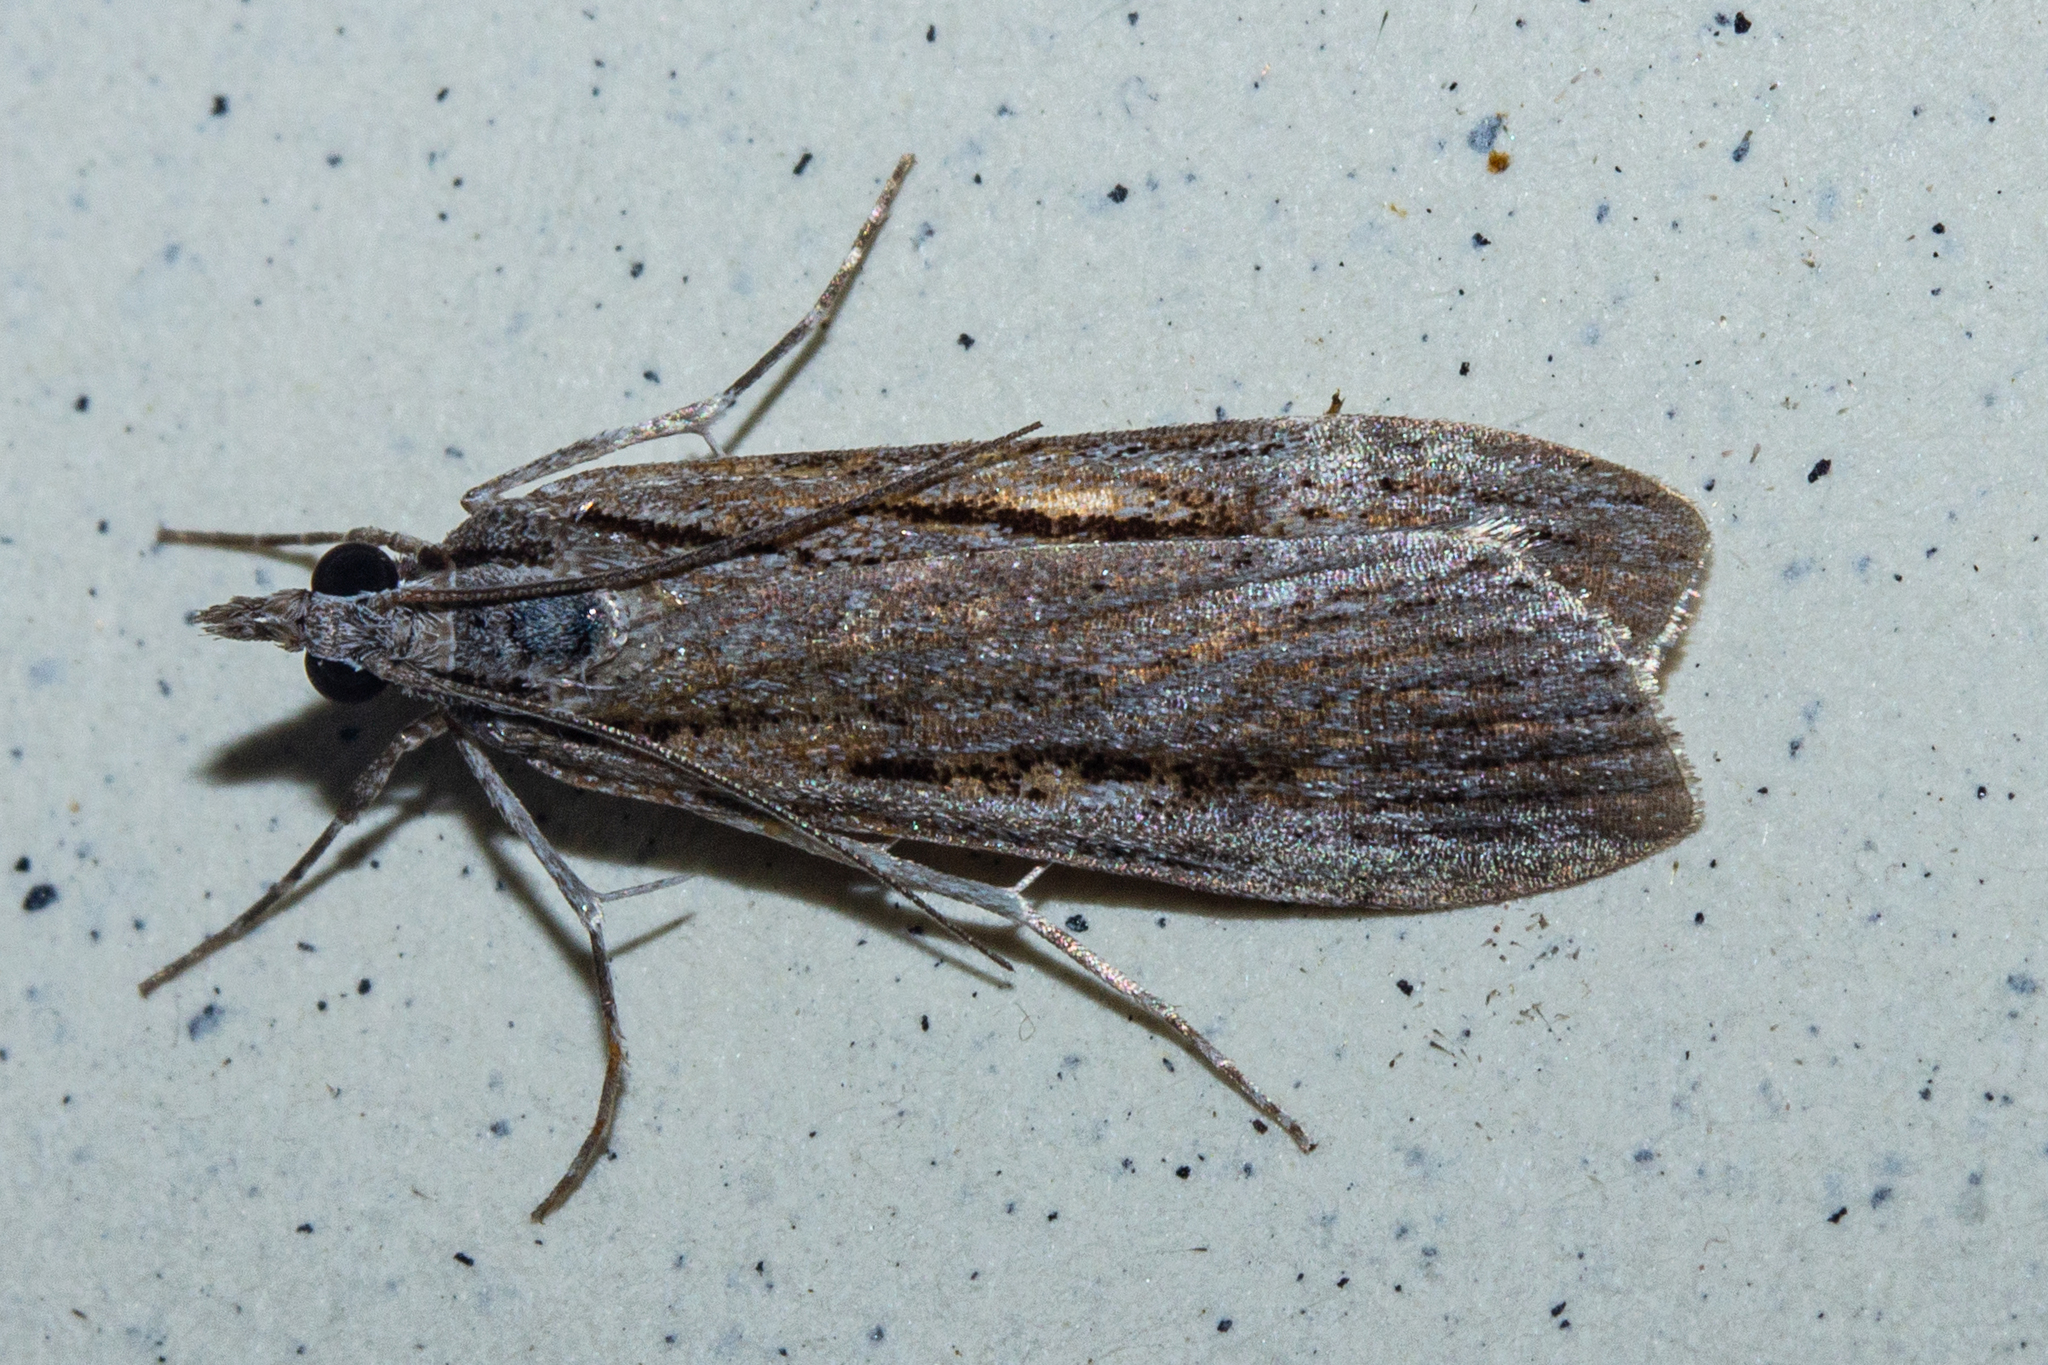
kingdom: Animalia
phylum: Arthropoda
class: Insecta
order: Lepidoptera
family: Crambidae
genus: Scoparia
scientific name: Scoparia indistinctalis
